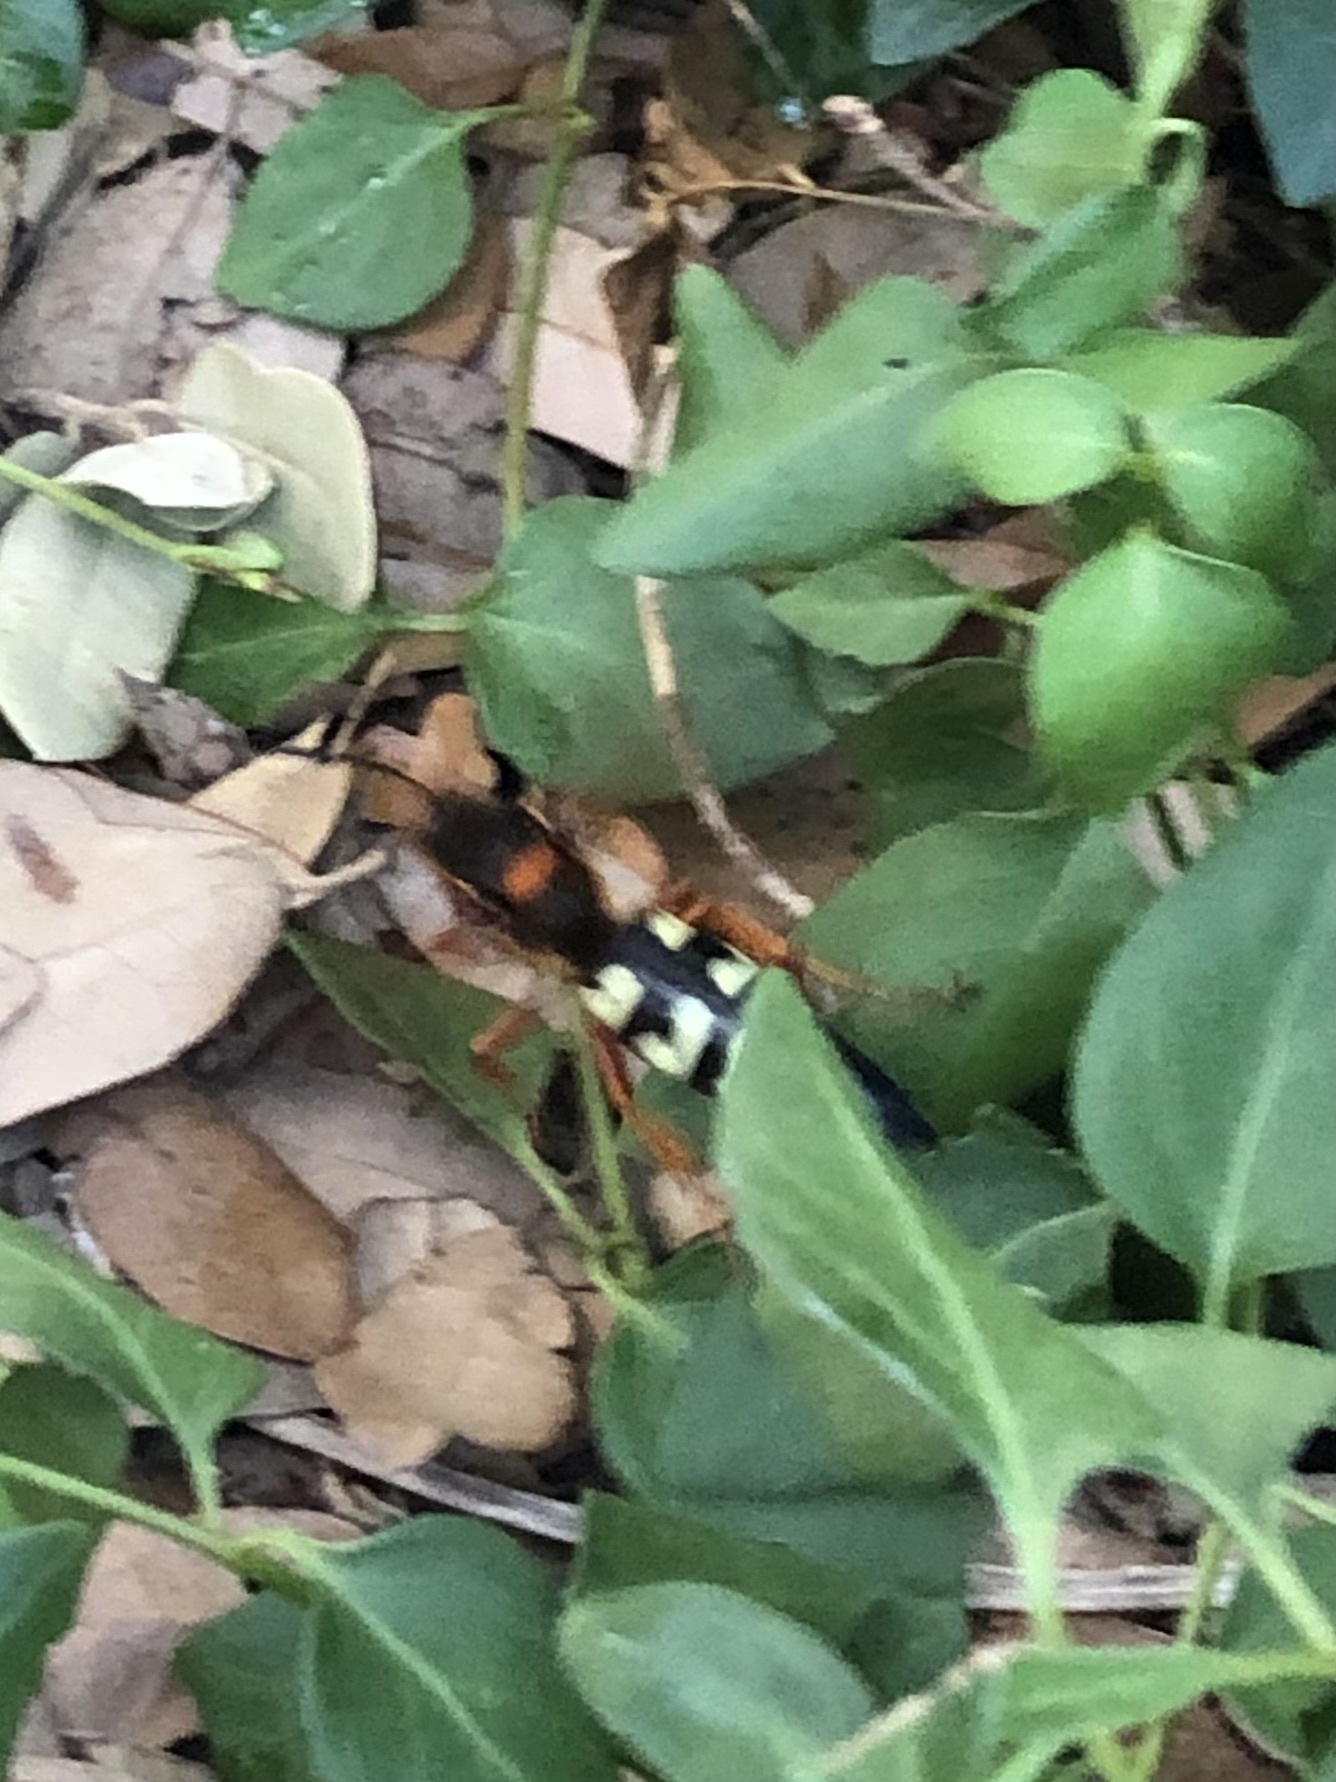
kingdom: Animalia
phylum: Arthropoda
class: Insecta
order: Hymenoptera
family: Crabronidae
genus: Sphecius
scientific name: Sphecius speciosus
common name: Cicada killer
